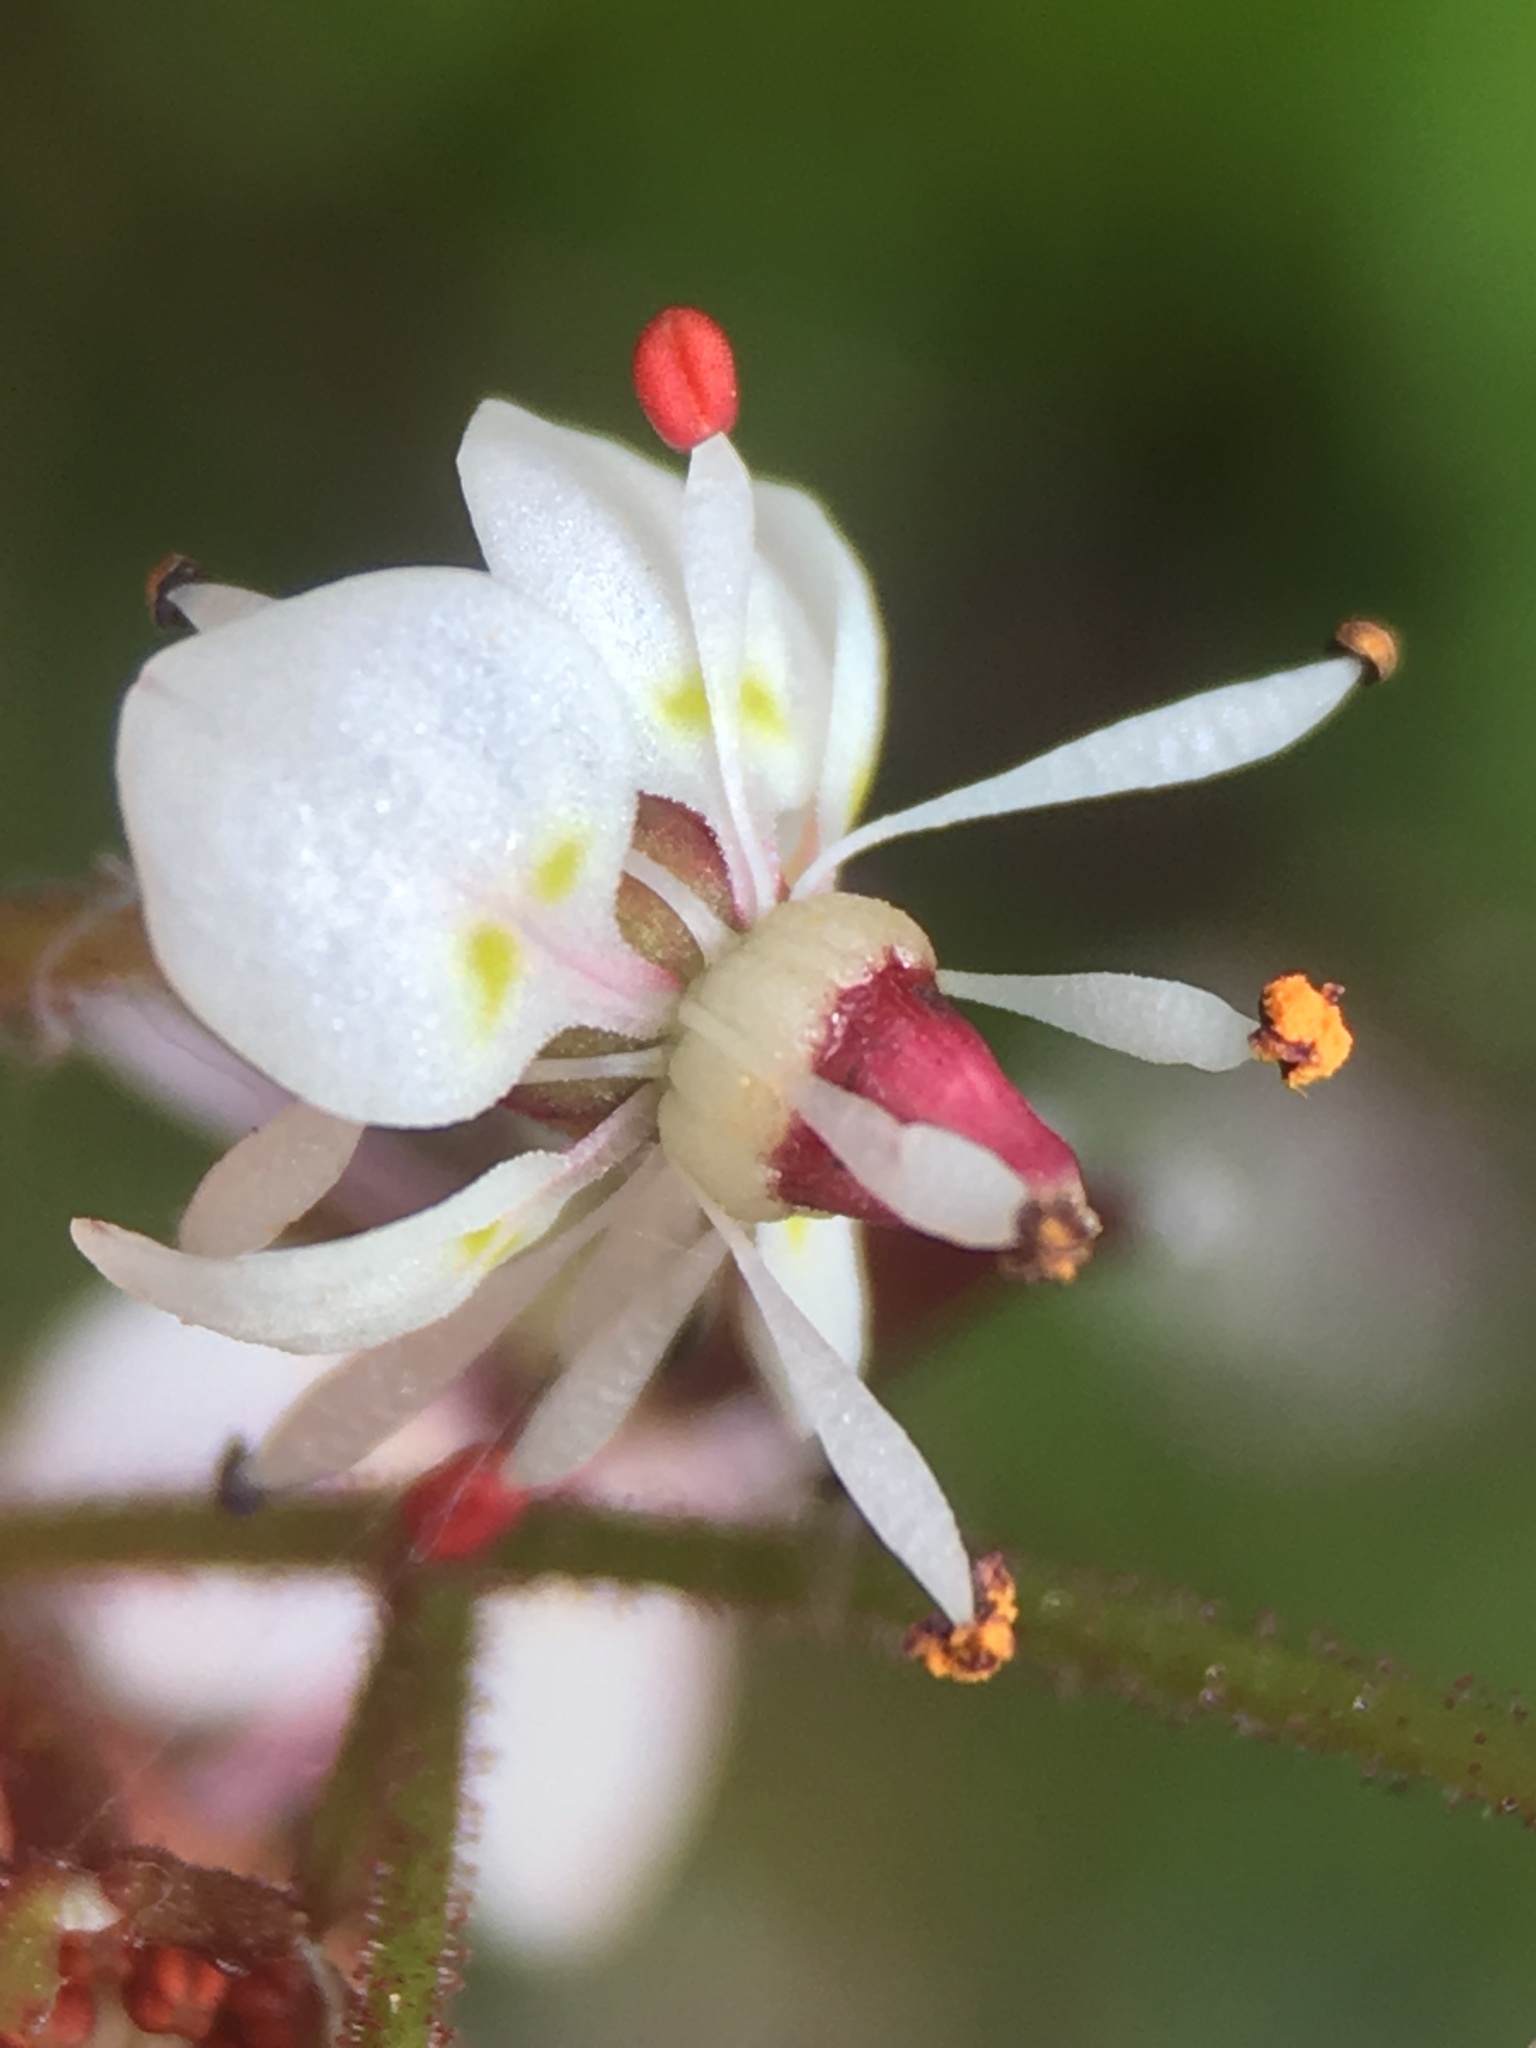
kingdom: Plantae
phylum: Tracheophyta
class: Magnoliopsida
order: Saxifragales
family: Saxifragaceae
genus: Micranthes
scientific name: Micranthes odontoloma
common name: Brook saxifrage
